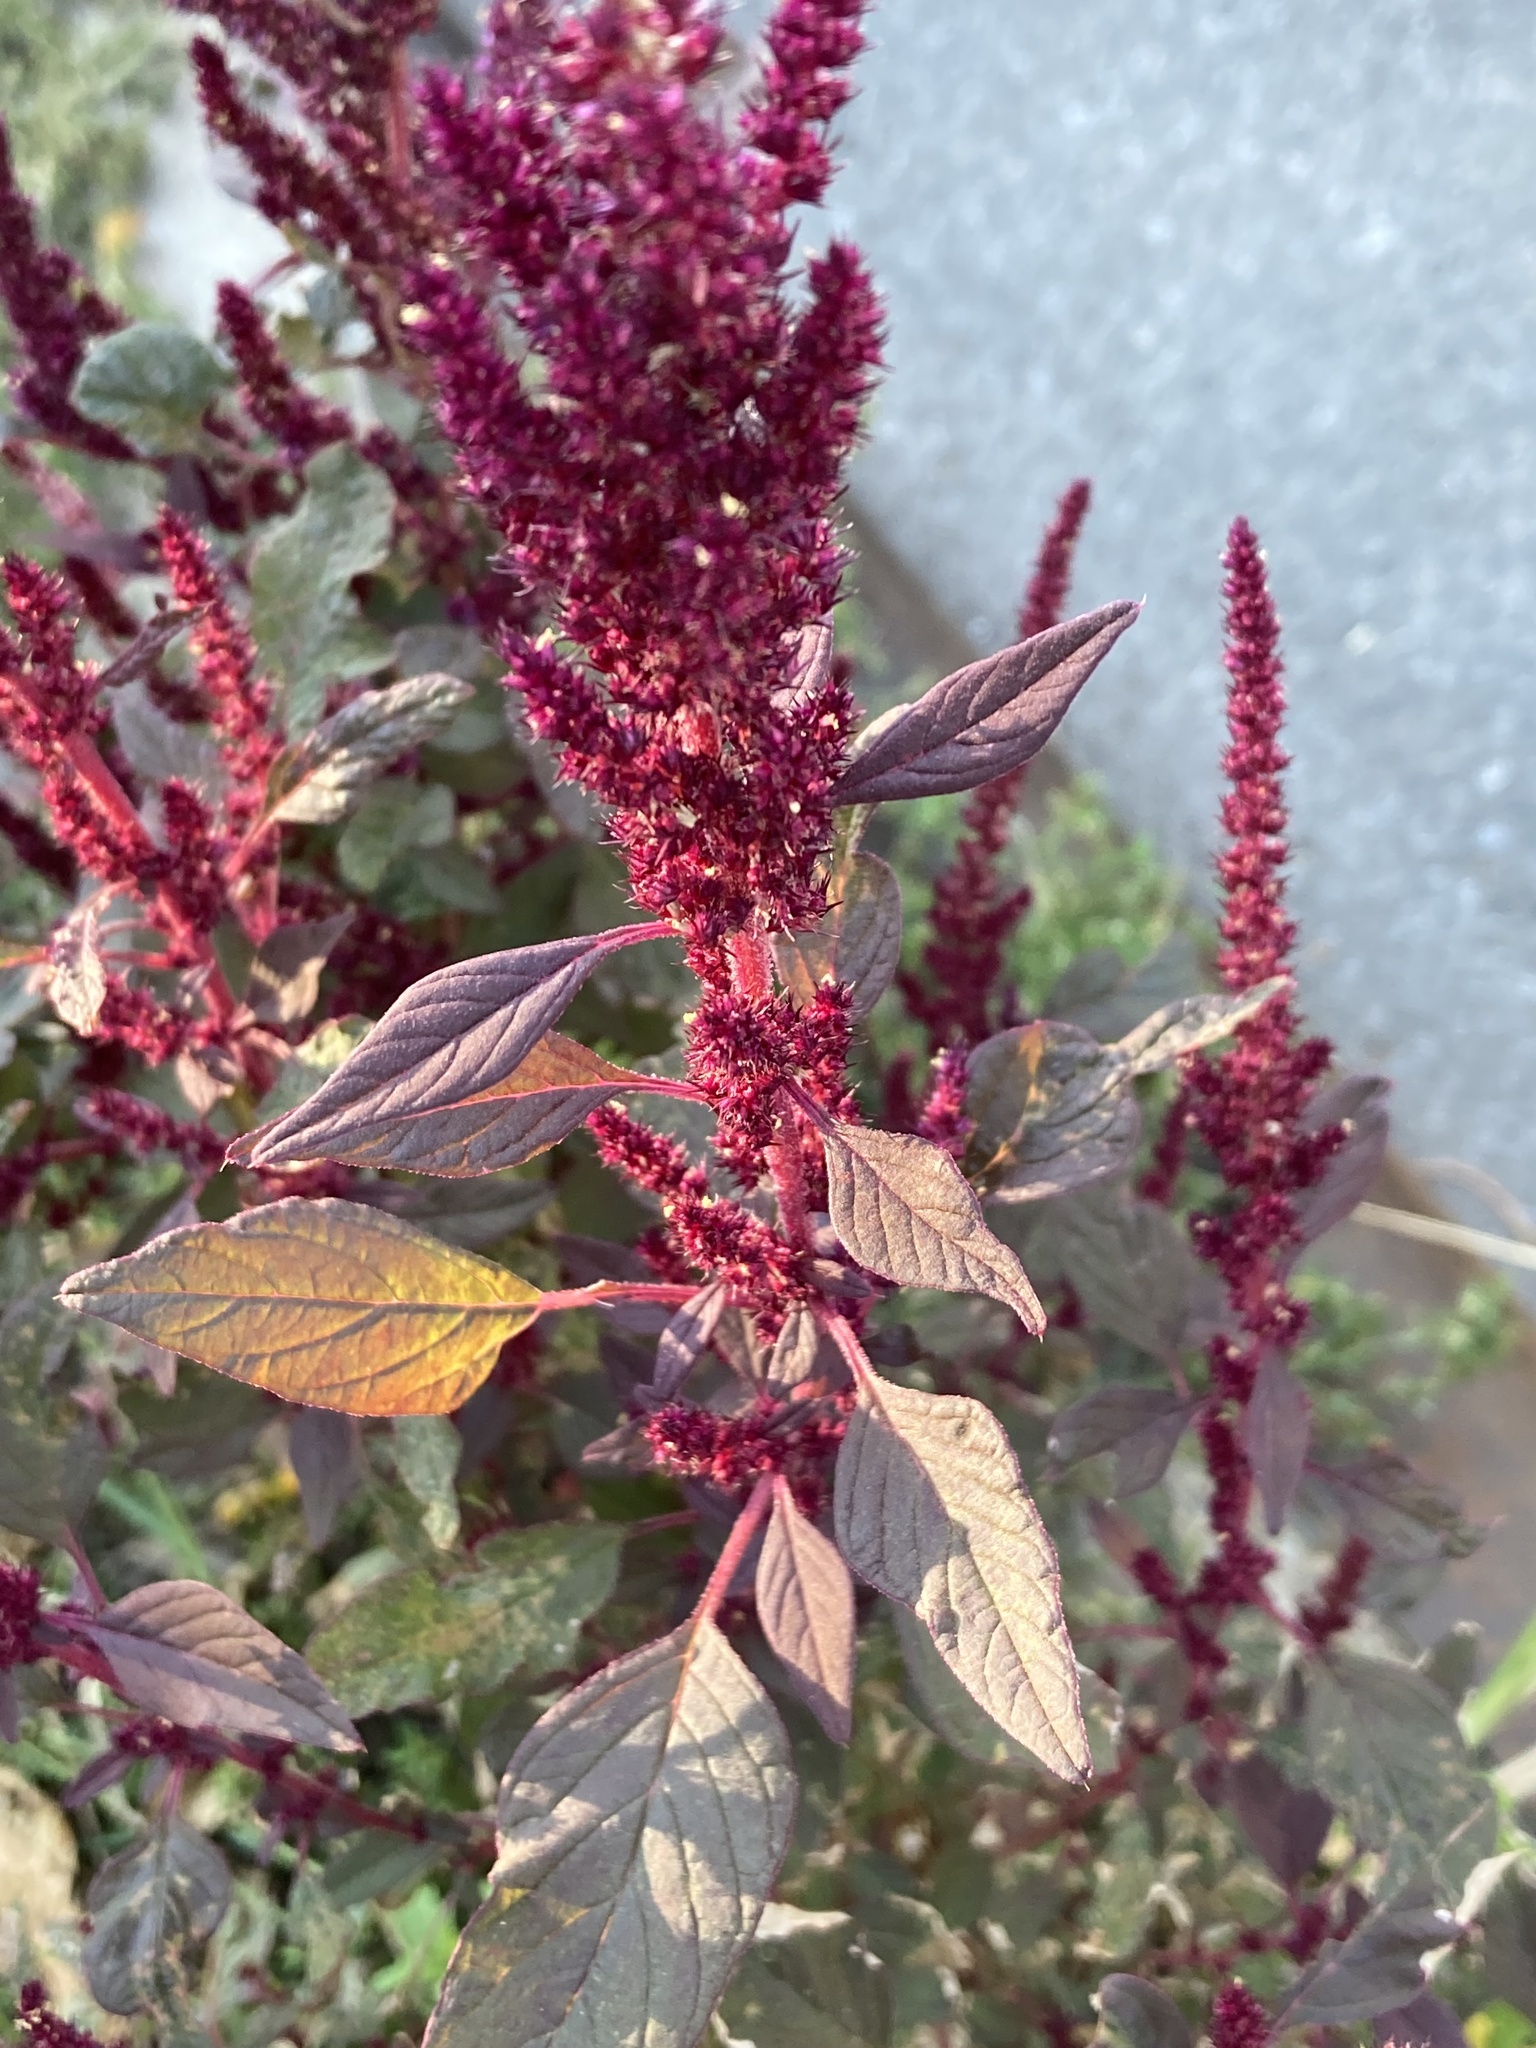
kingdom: Plantae
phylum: Tracheophyta
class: Magnoliopsida
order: Caryophyllales
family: Amaranthaceae
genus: Amaranthus
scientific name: Amaranthus cruentus
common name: Purple amaranth
